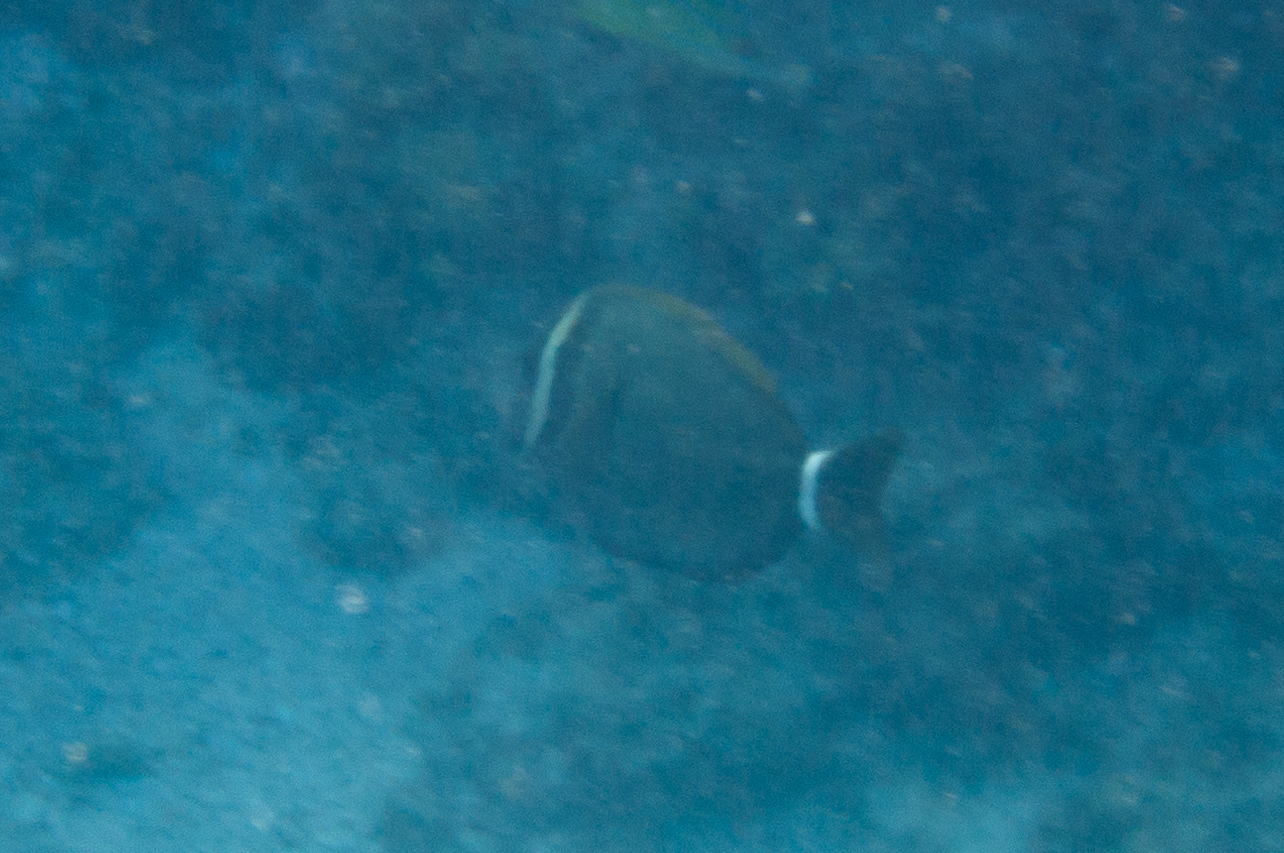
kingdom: Animalia
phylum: Chordata
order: Perciformes
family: Acanthuridae
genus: Acanthurus
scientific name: Acanthurus leucopareius
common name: Head-band surgeonfish
